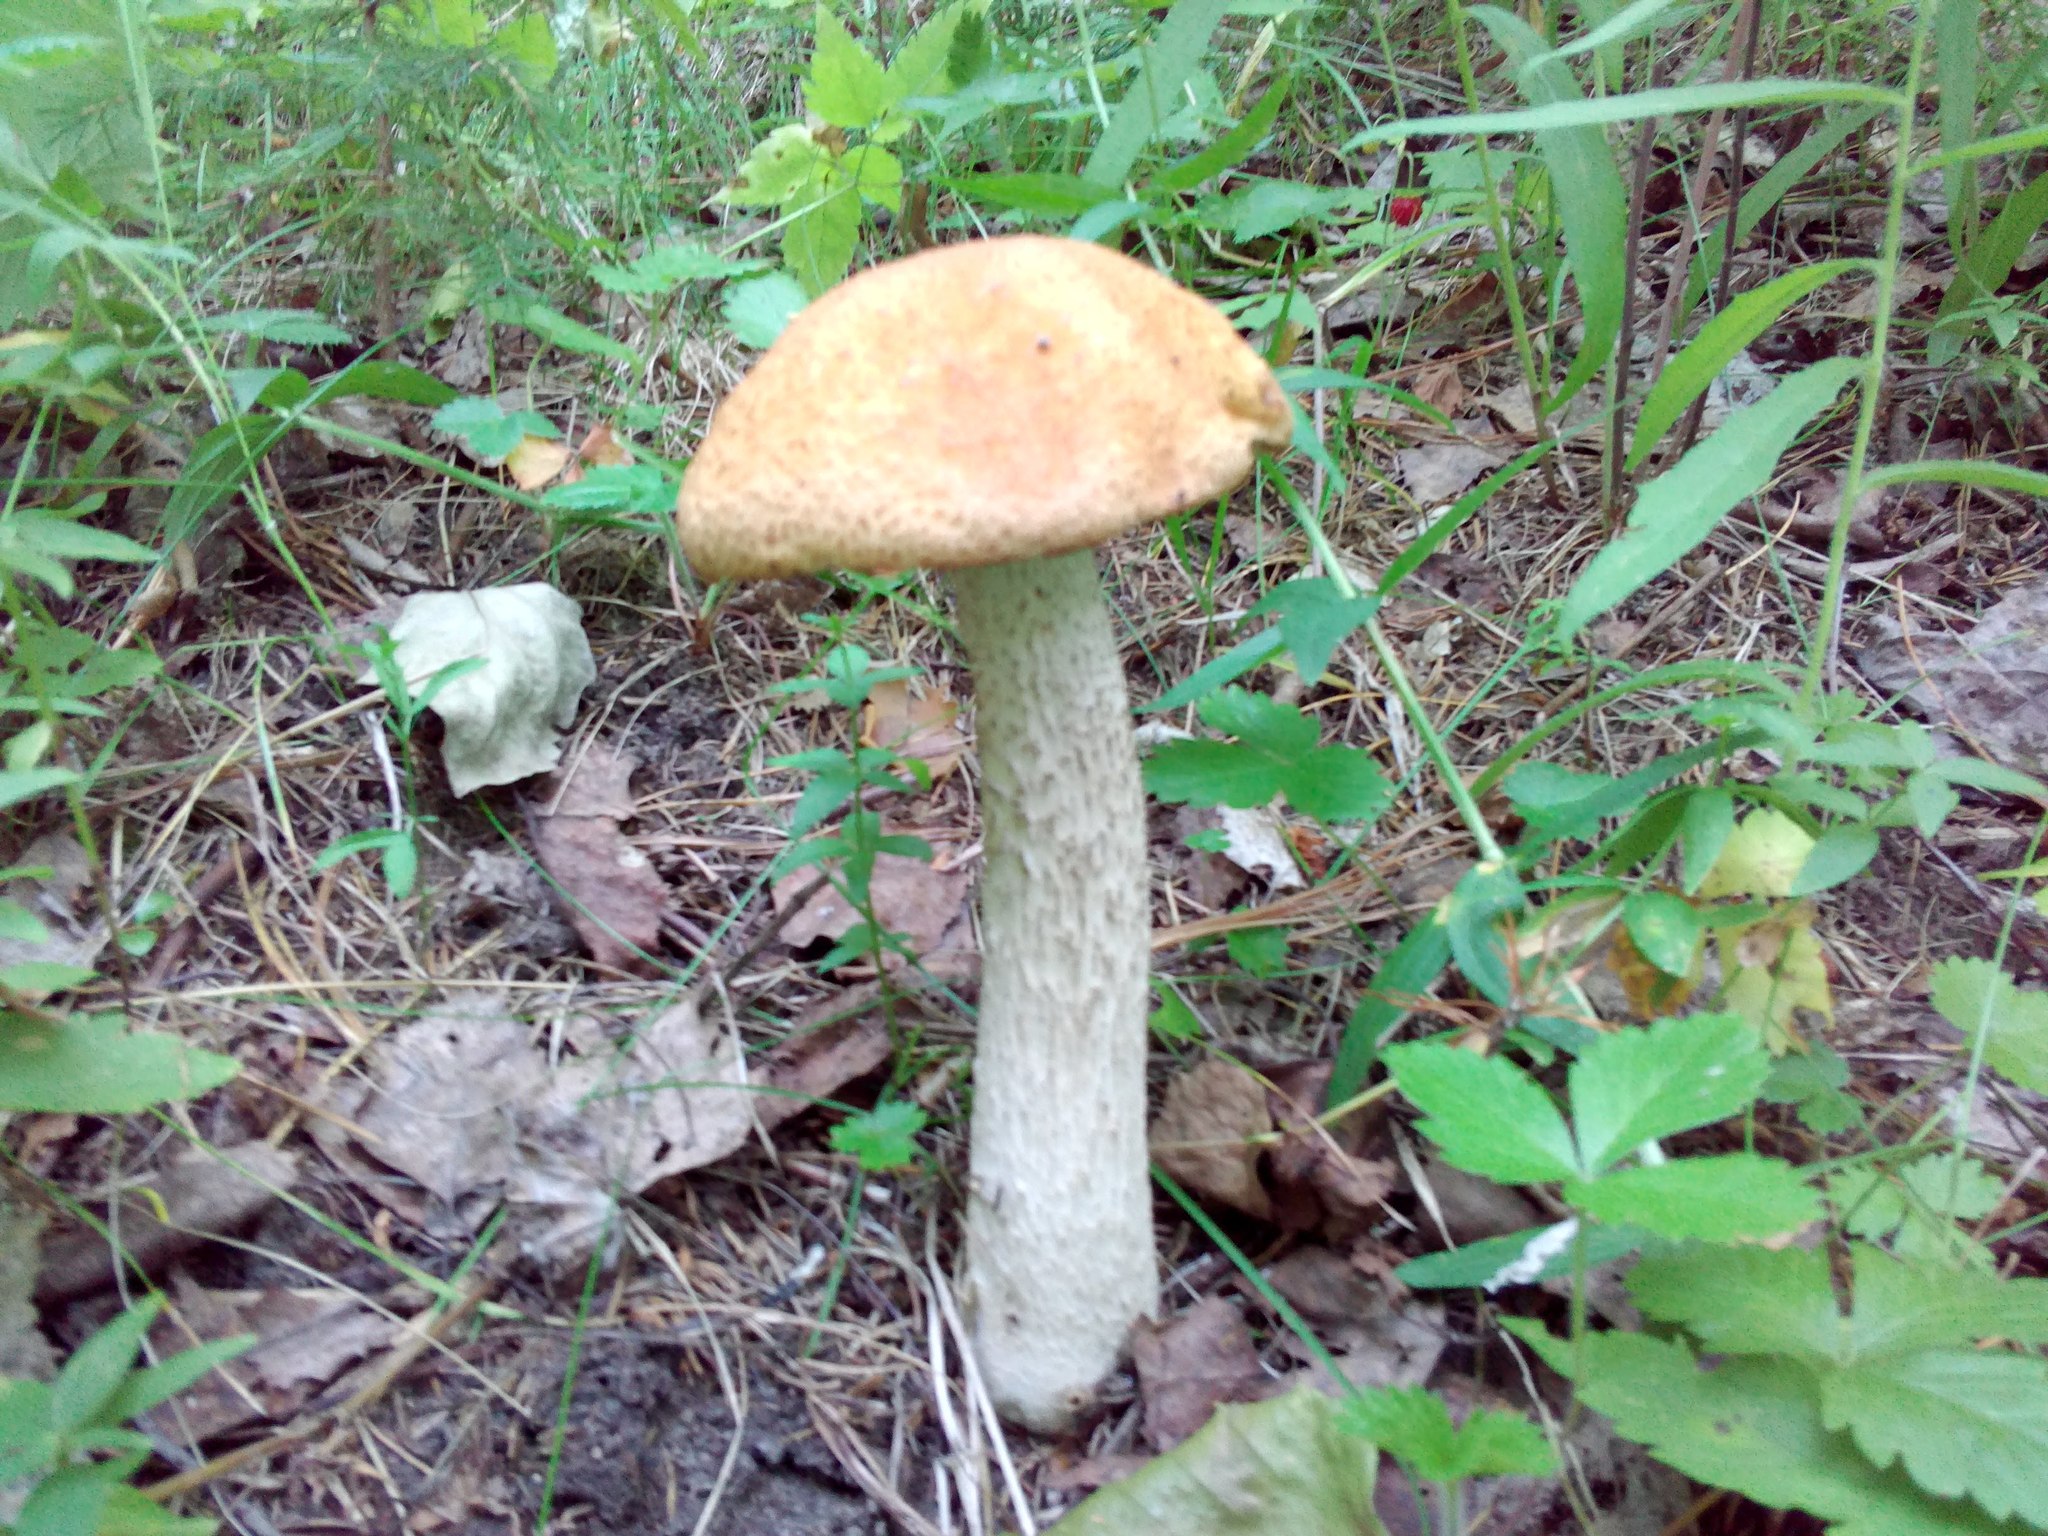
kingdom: Fungi
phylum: Basidiomycota
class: Agaricomycetes
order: Boletales
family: Boletaceae
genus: Leccinum
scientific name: Leccinum albostipitatum
